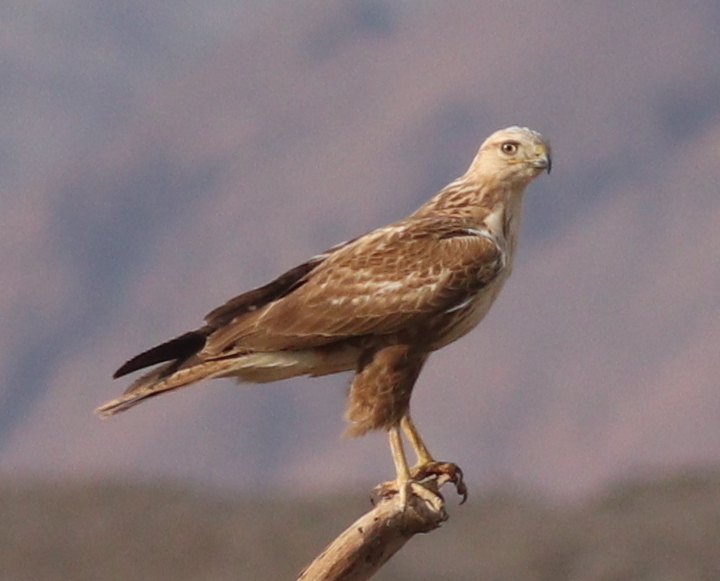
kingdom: Animalia
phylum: Chordata
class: Aves
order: Accipitriformes
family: Accipitridae
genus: Buteo
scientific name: Buteo rufinus
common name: Long-legged buzzard
